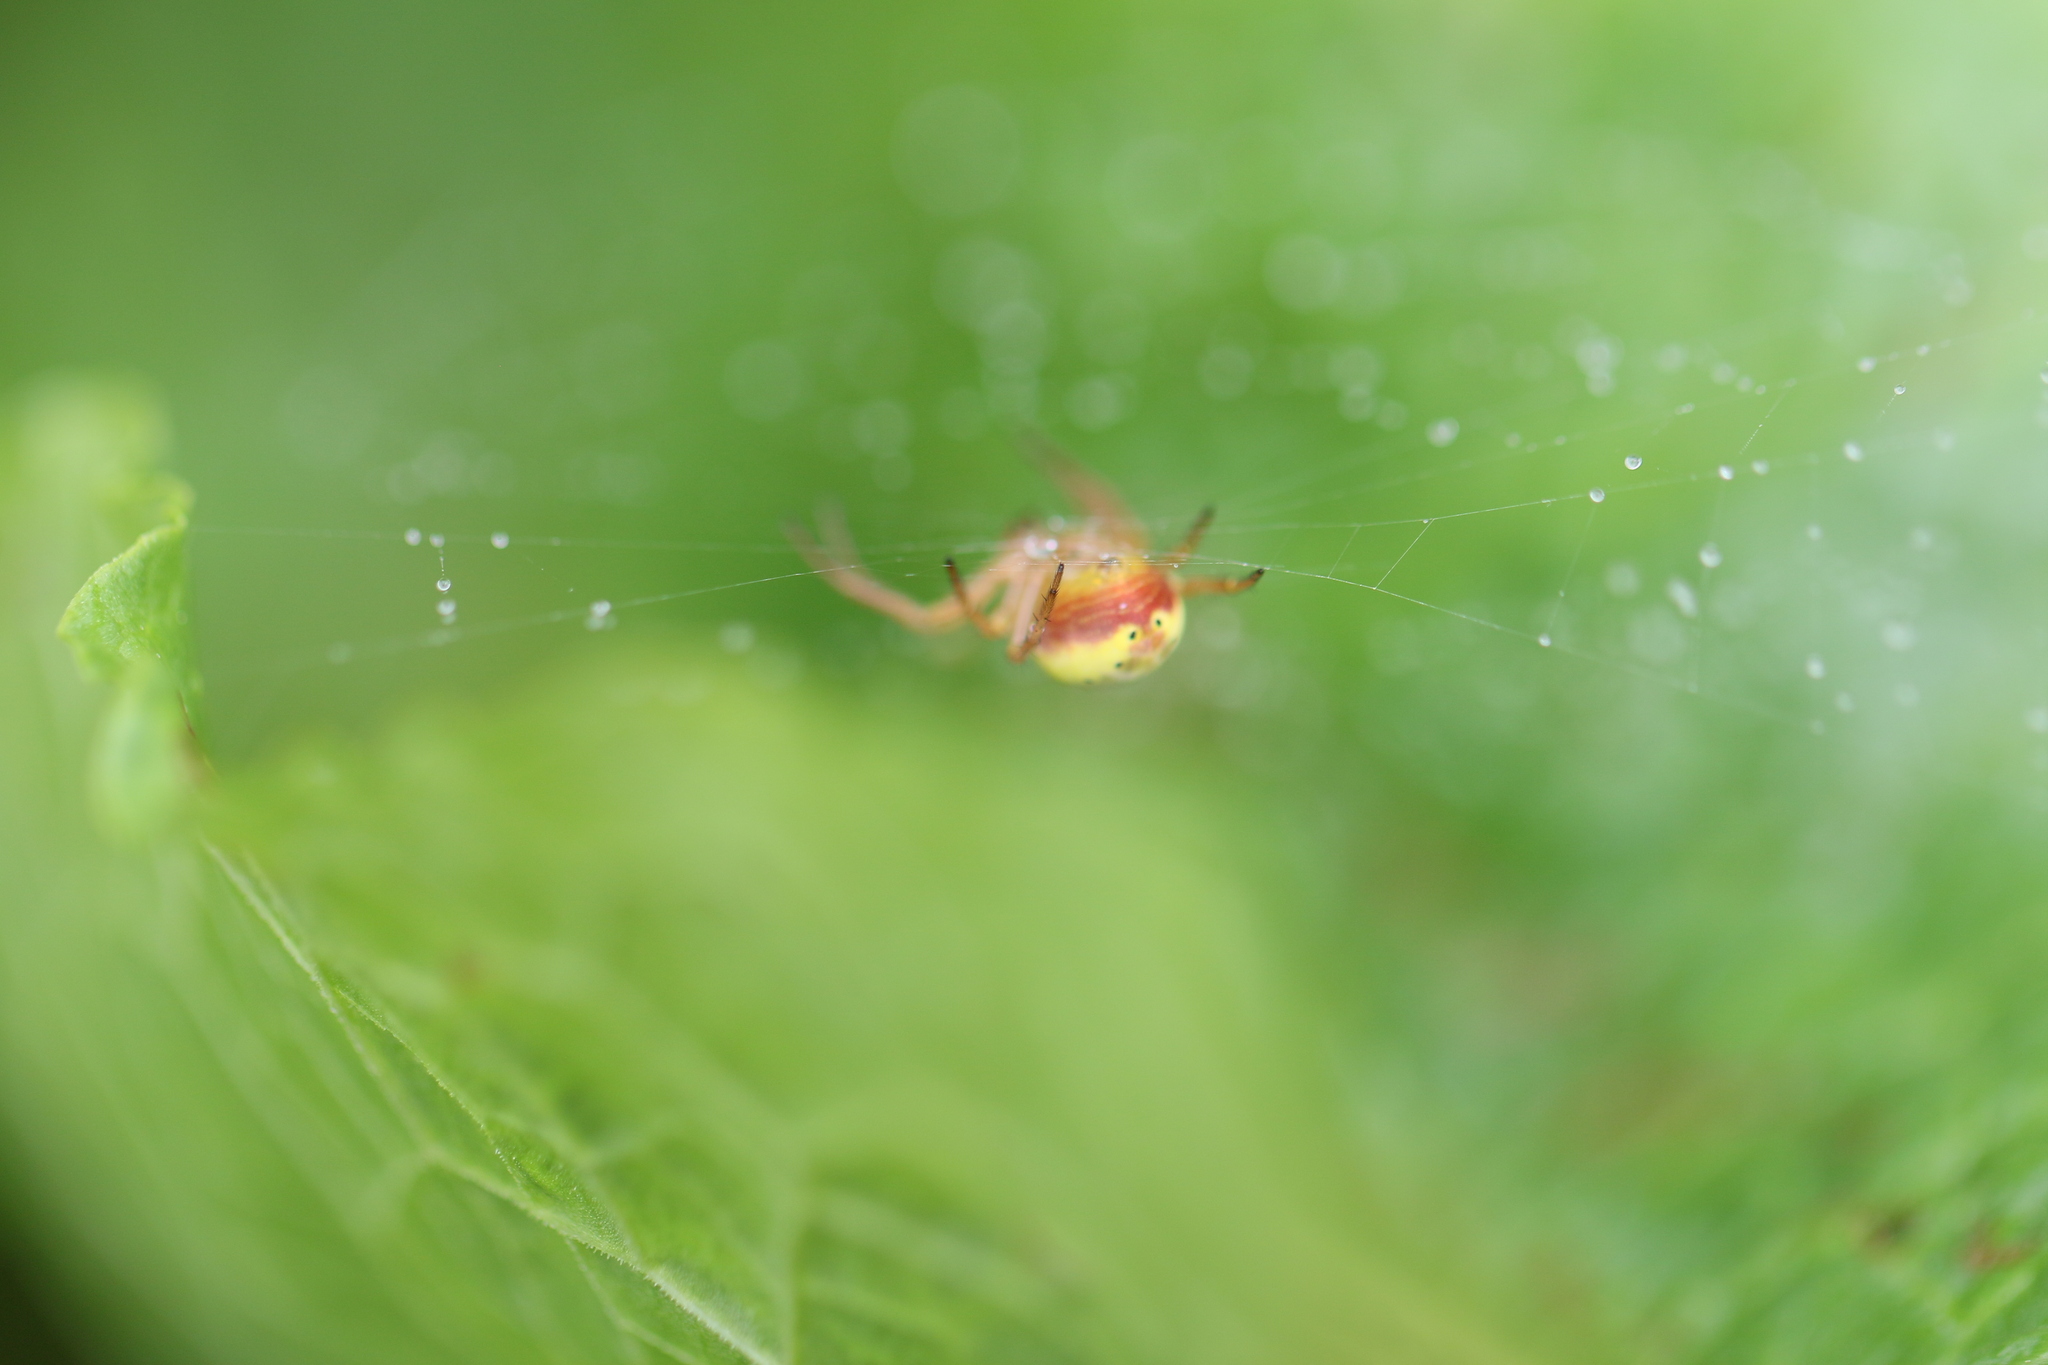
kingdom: Animalia
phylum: Arthropoda
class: Arachnida
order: Araneae
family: Araneidae
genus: Araniella
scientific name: Araniella displicata
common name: Sixspotted orb weaver
